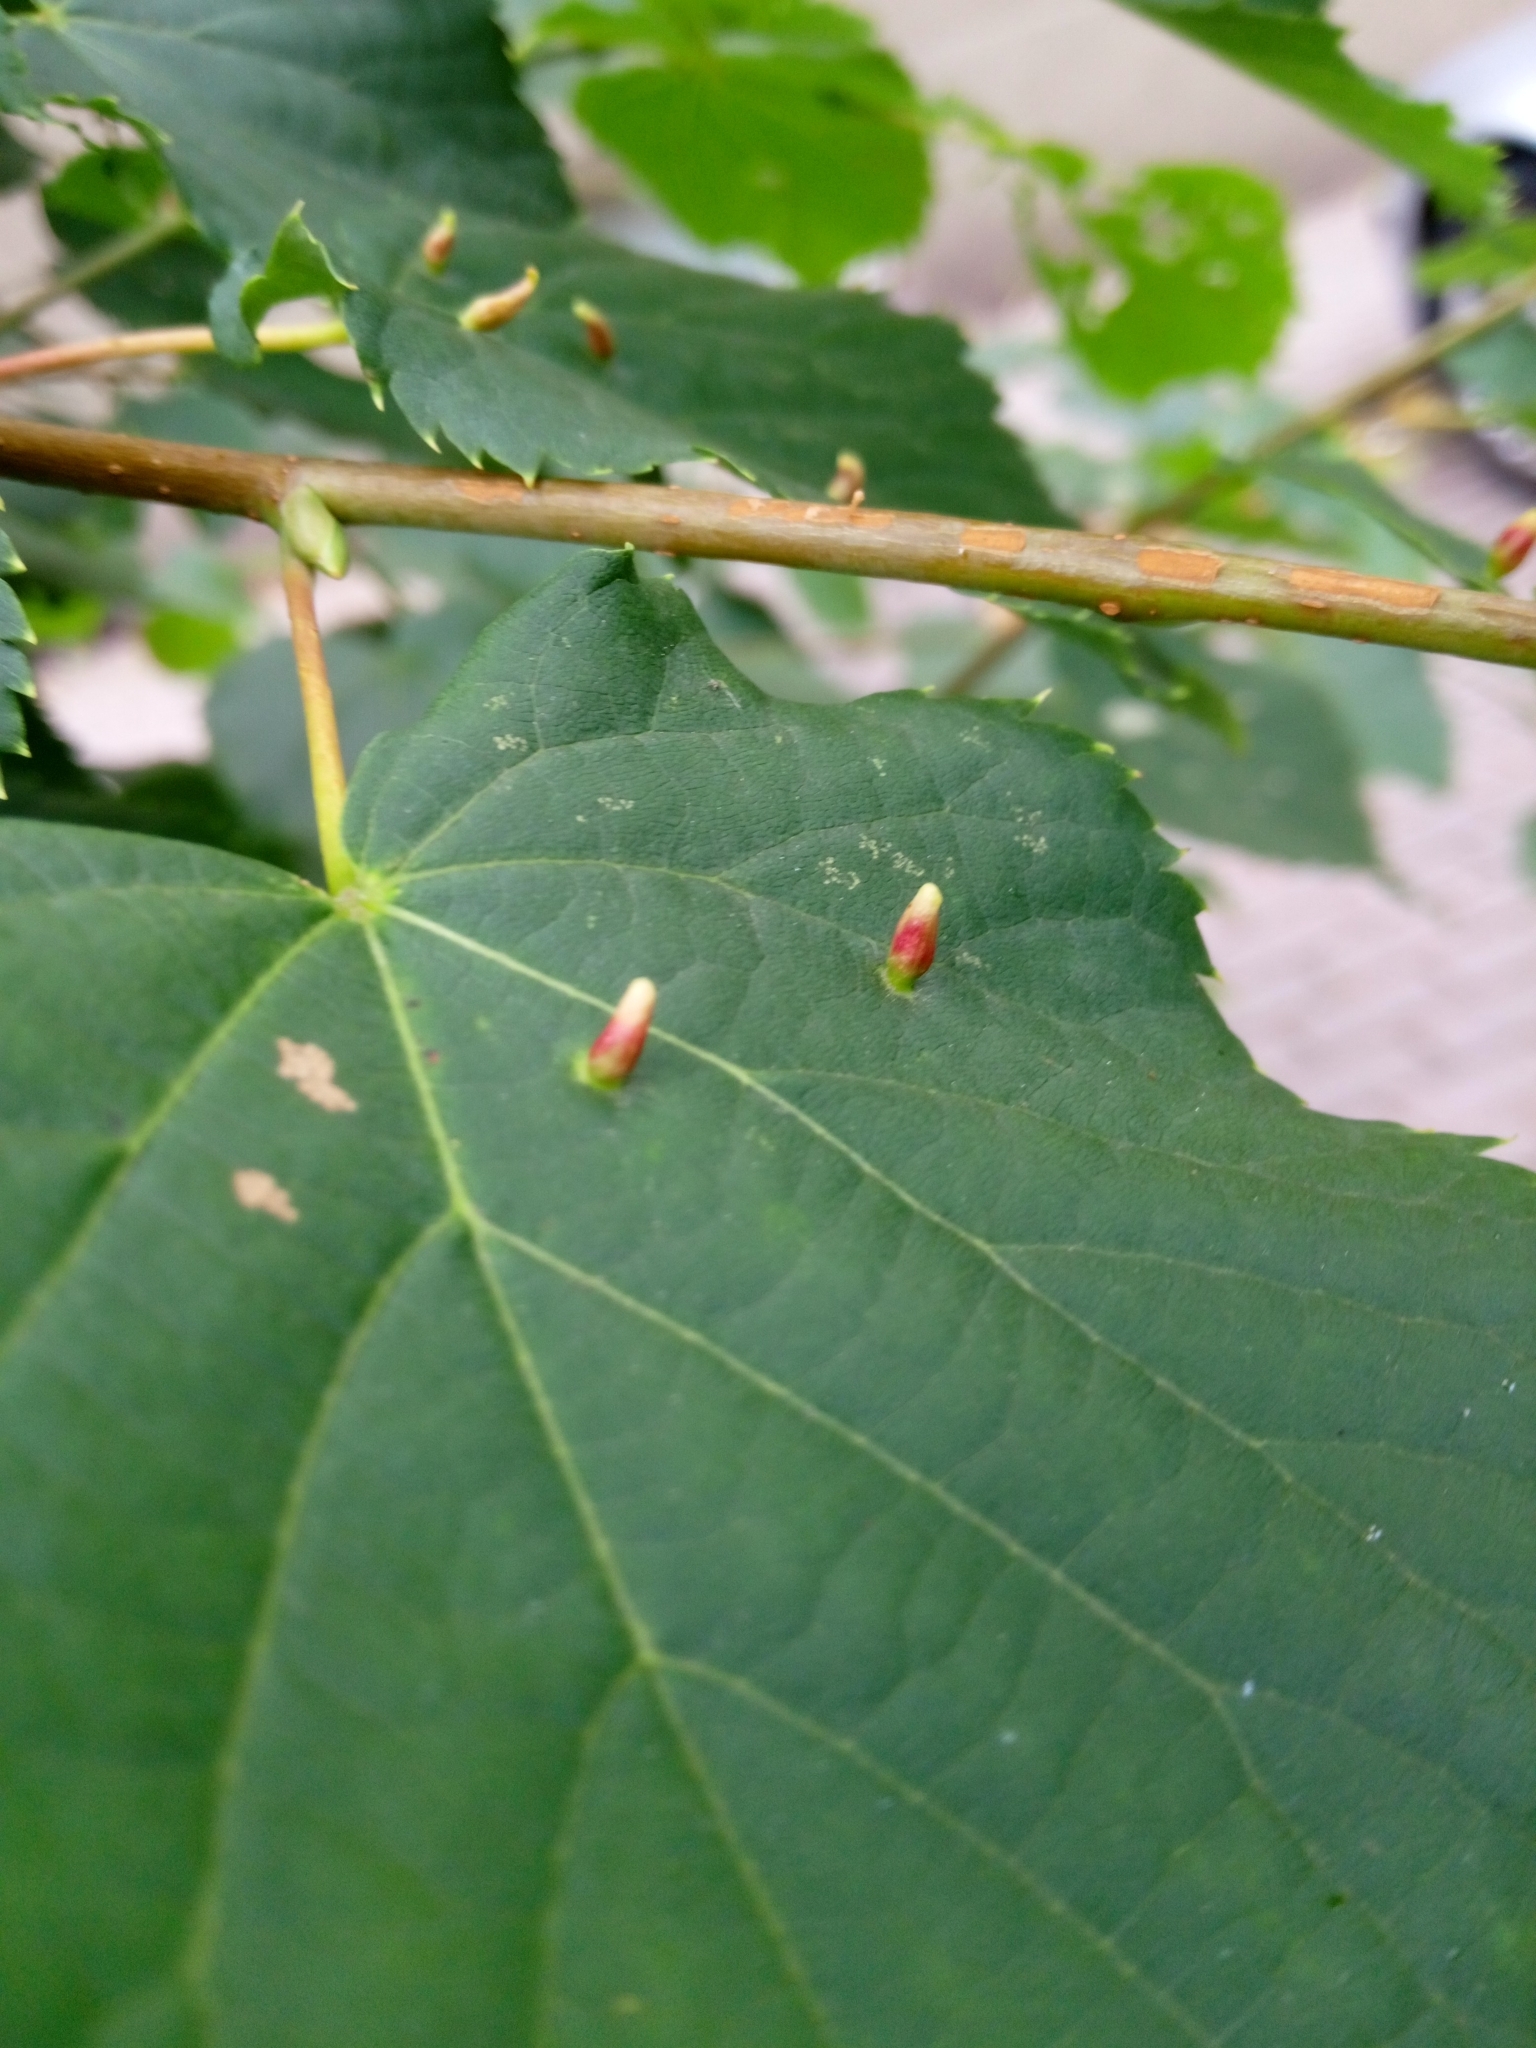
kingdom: Animalia
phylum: Arthropoda
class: Arachnida
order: Trombidiformes
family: Eriophyidae
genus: Eriophyes
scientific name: Eriophyes tiliae
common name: Red nail gall mite
